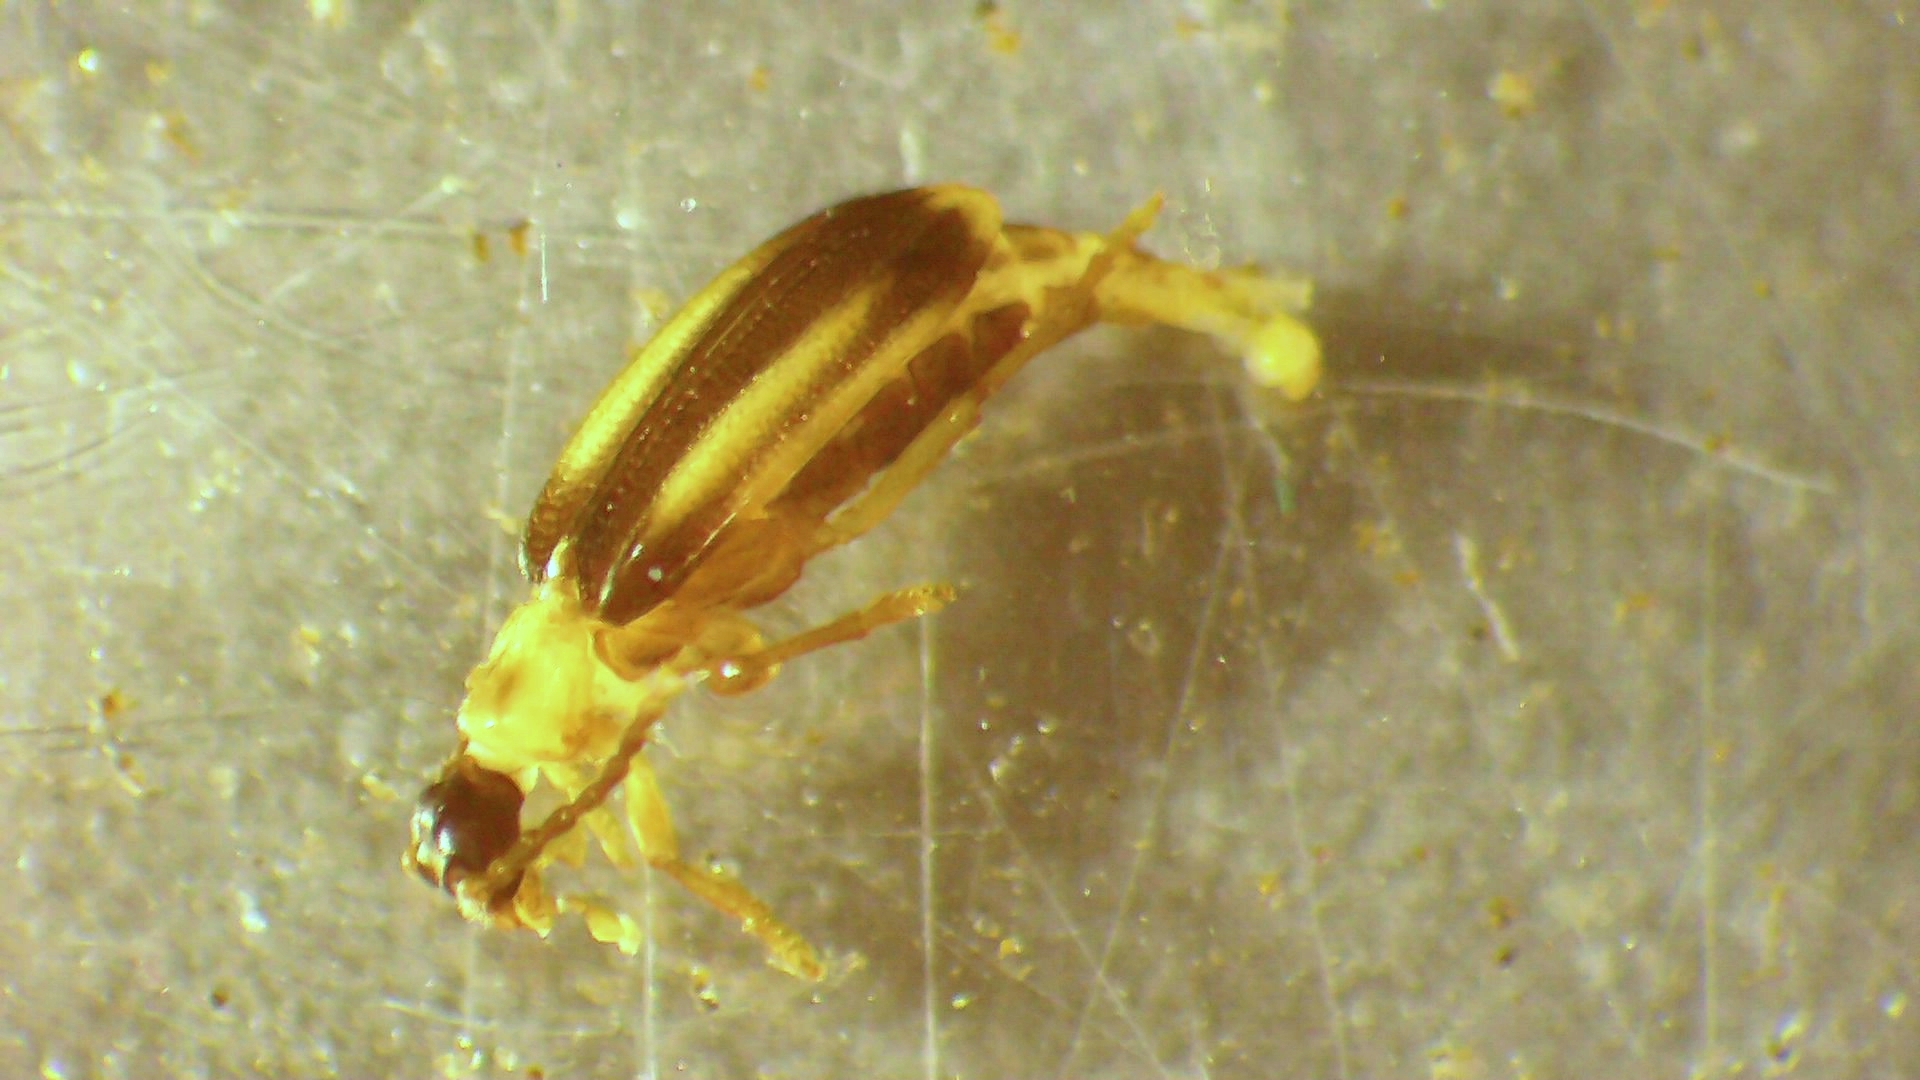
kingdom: Animalia
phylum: Arthropoda
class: Insecta
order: Coleoptera
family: Anthicidae
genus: Ischalia
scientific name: Ischalia costata
